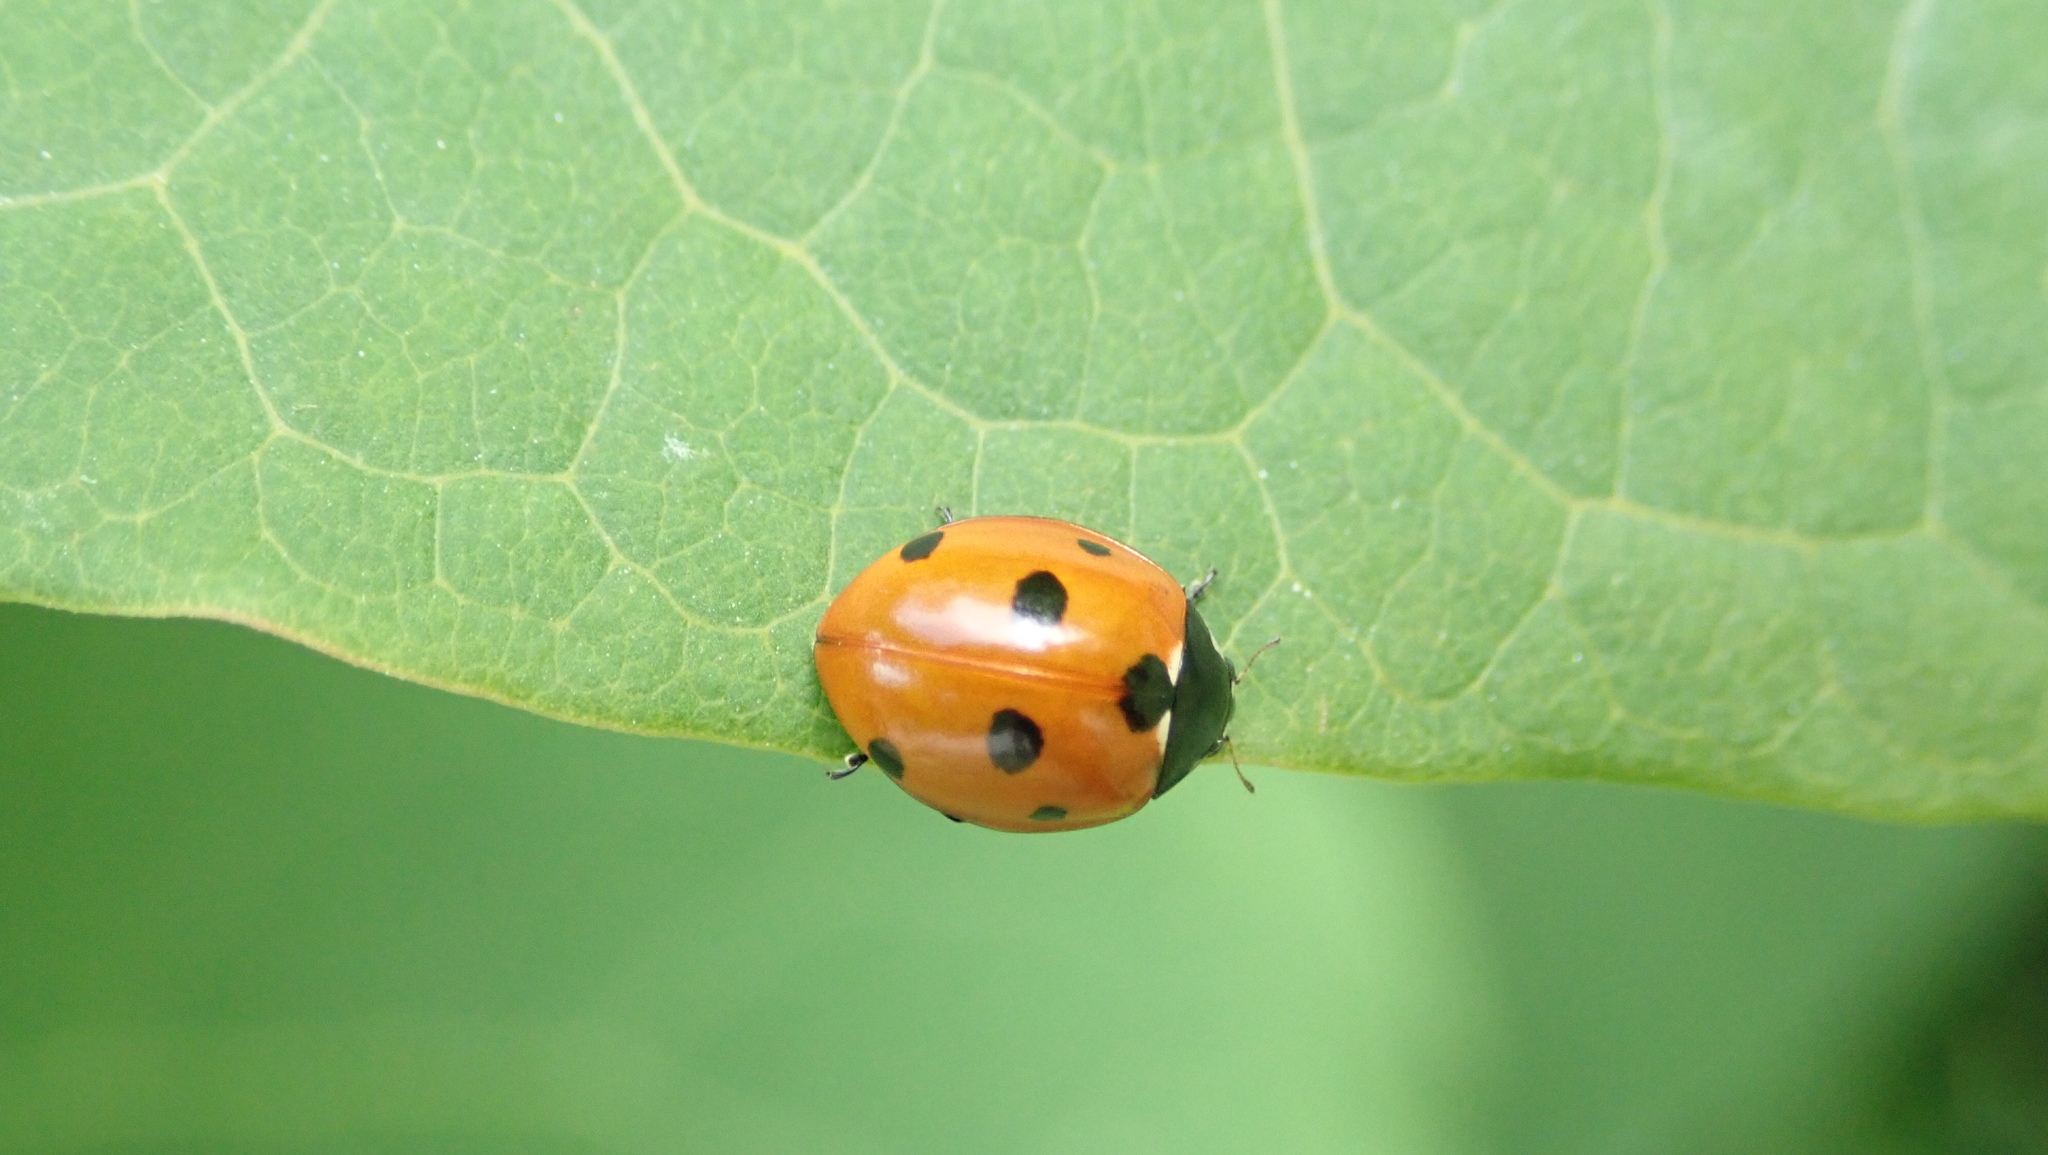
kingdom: Animalia
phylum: Arthropoda
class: Insecta
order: Coleoptera
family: Coccinellidae
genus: Coccinella
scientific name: Coccinella septempunctata
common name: Sevenspotted lady beetle
